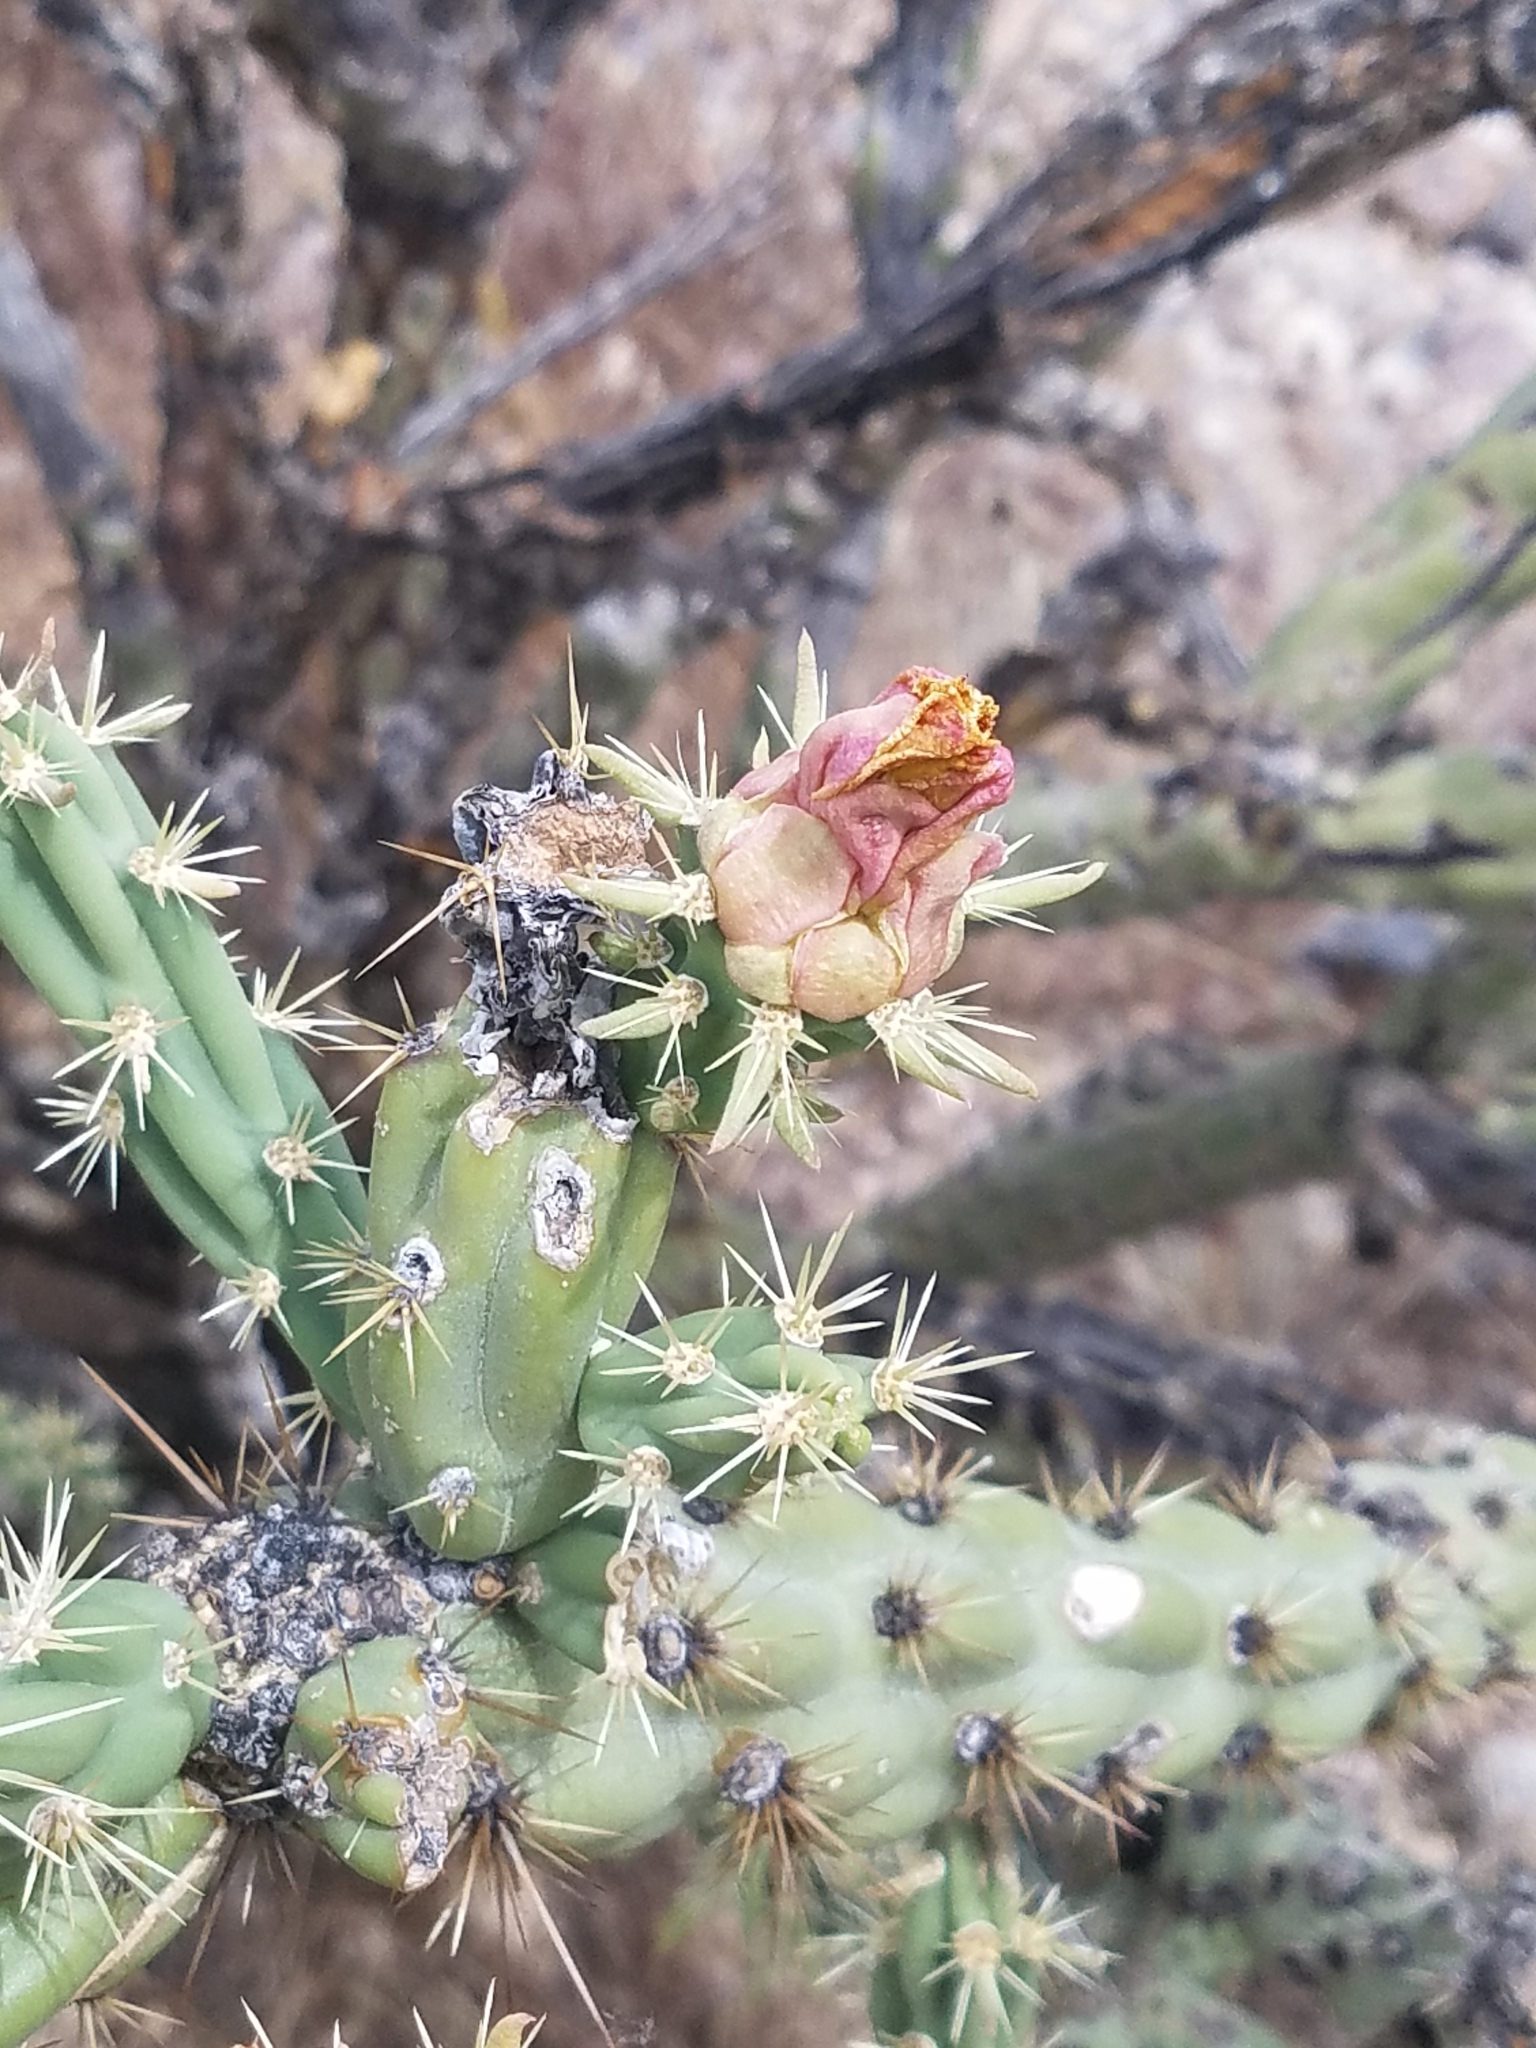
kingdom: Plantae
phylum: Tracheophyta
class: Magnoliopsida
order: Caryophyllales
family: Cactaceae
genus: Cylindropuntia
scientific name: Cylindropuntia acanthocarpa
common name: Buckhorn cholla
